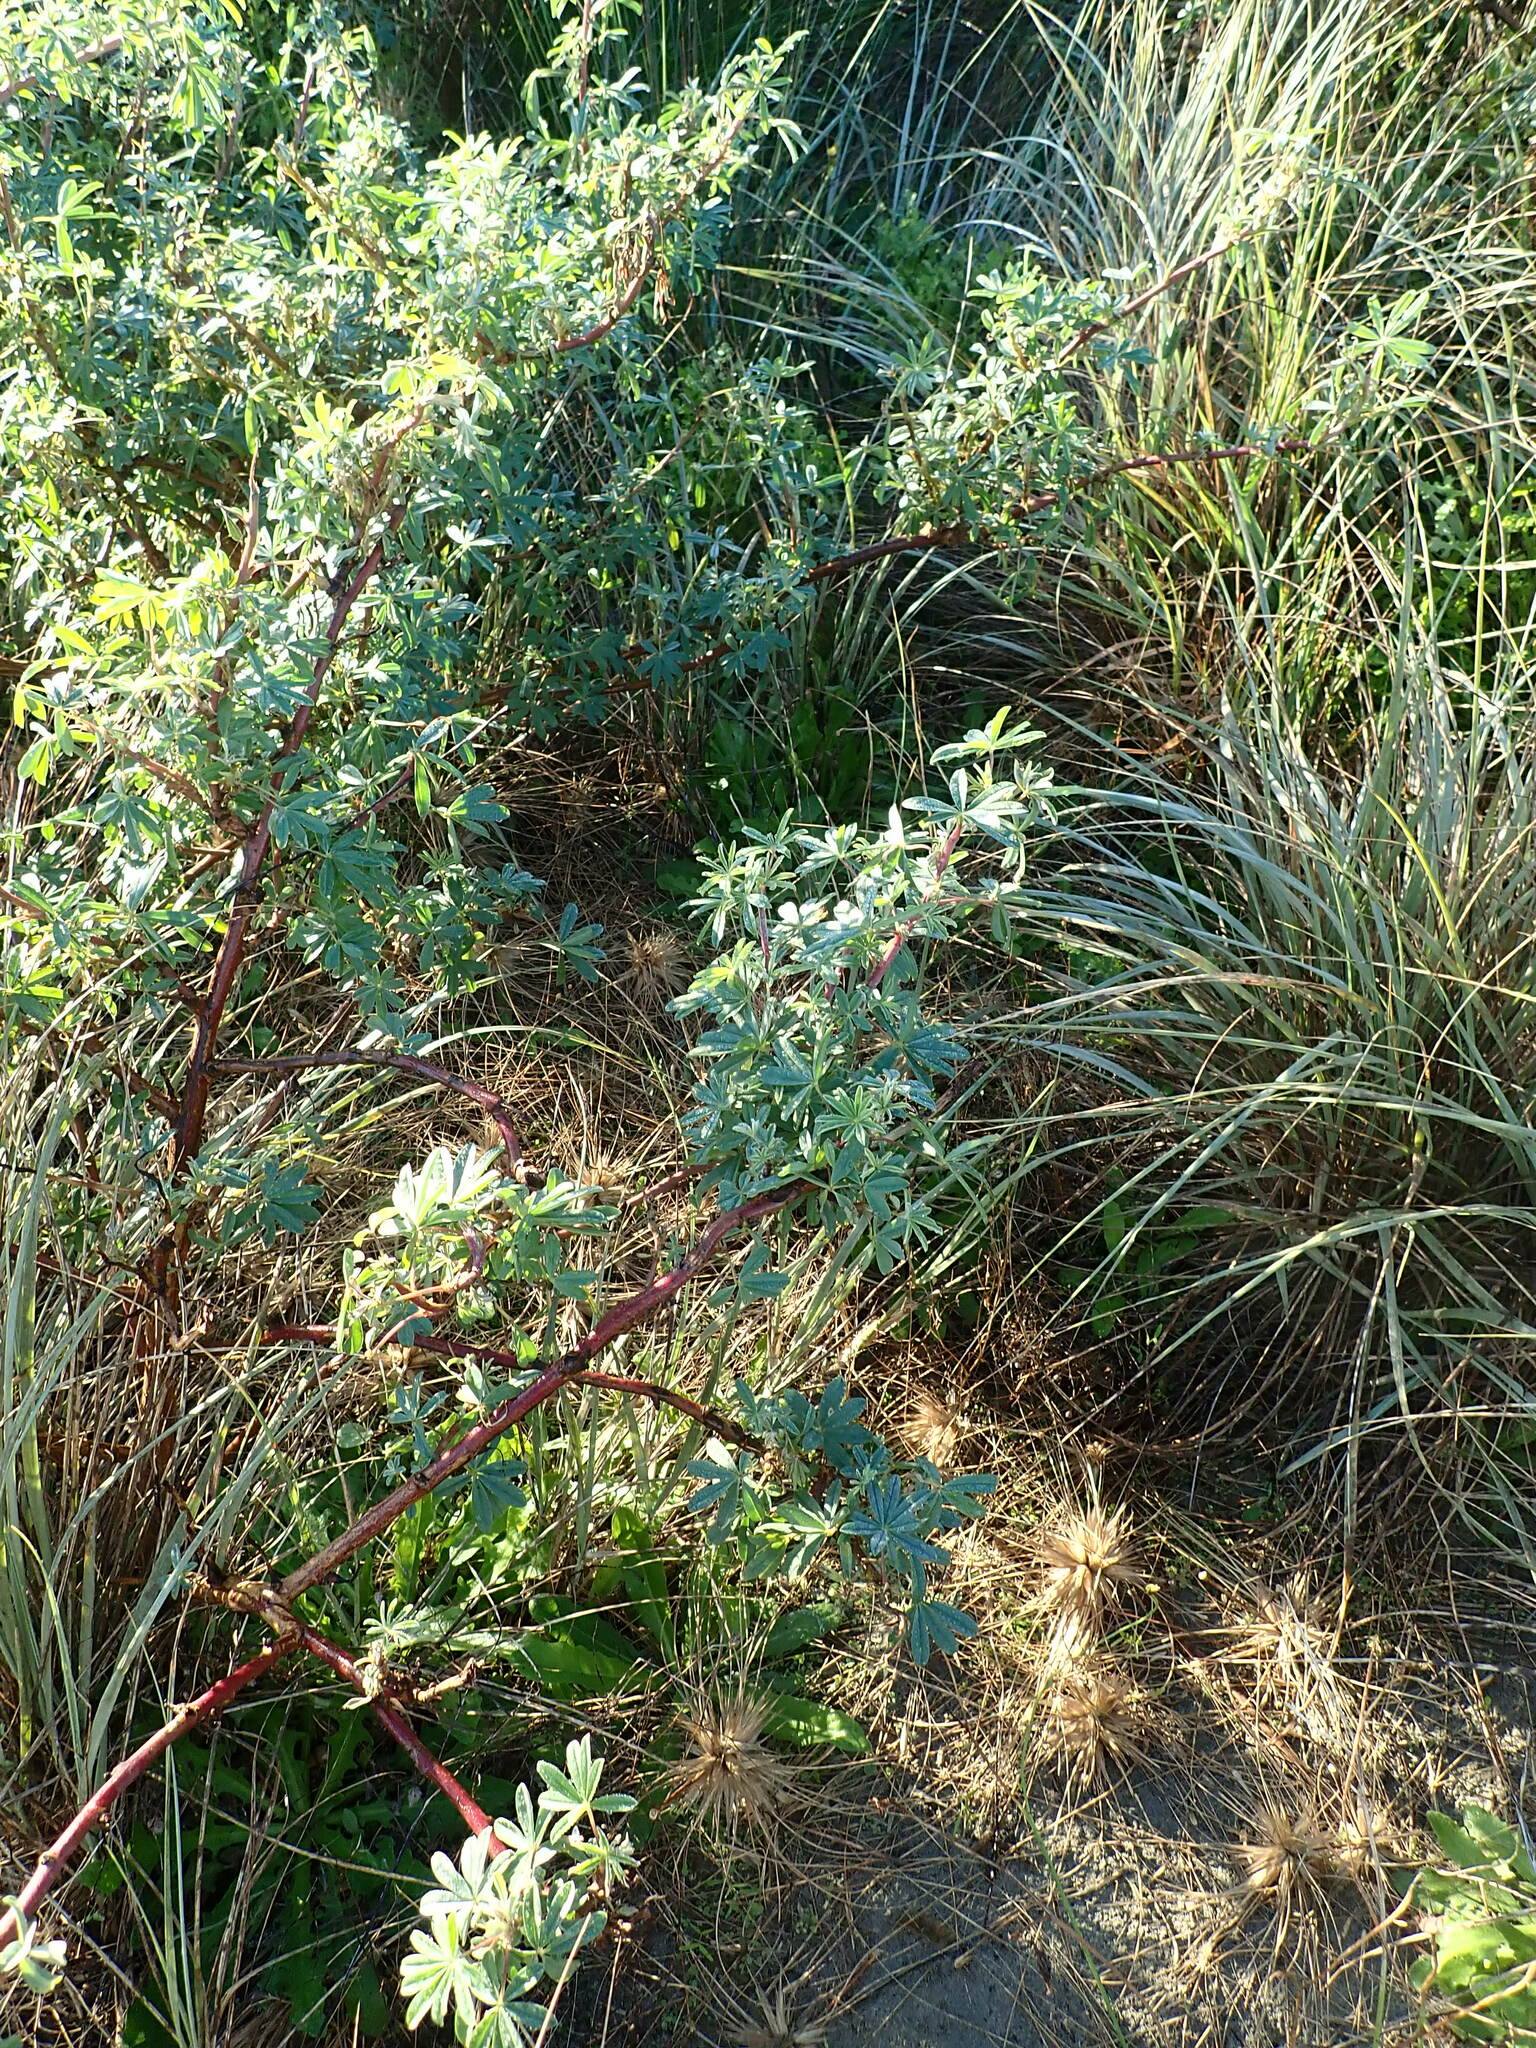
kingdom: Plantae
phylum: Tracheophyta
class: Magnoliopsida
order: Fabales
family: Fabaceae
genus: Lupinus
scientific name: Lupinus arboreus
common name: Yellow bush lupine
